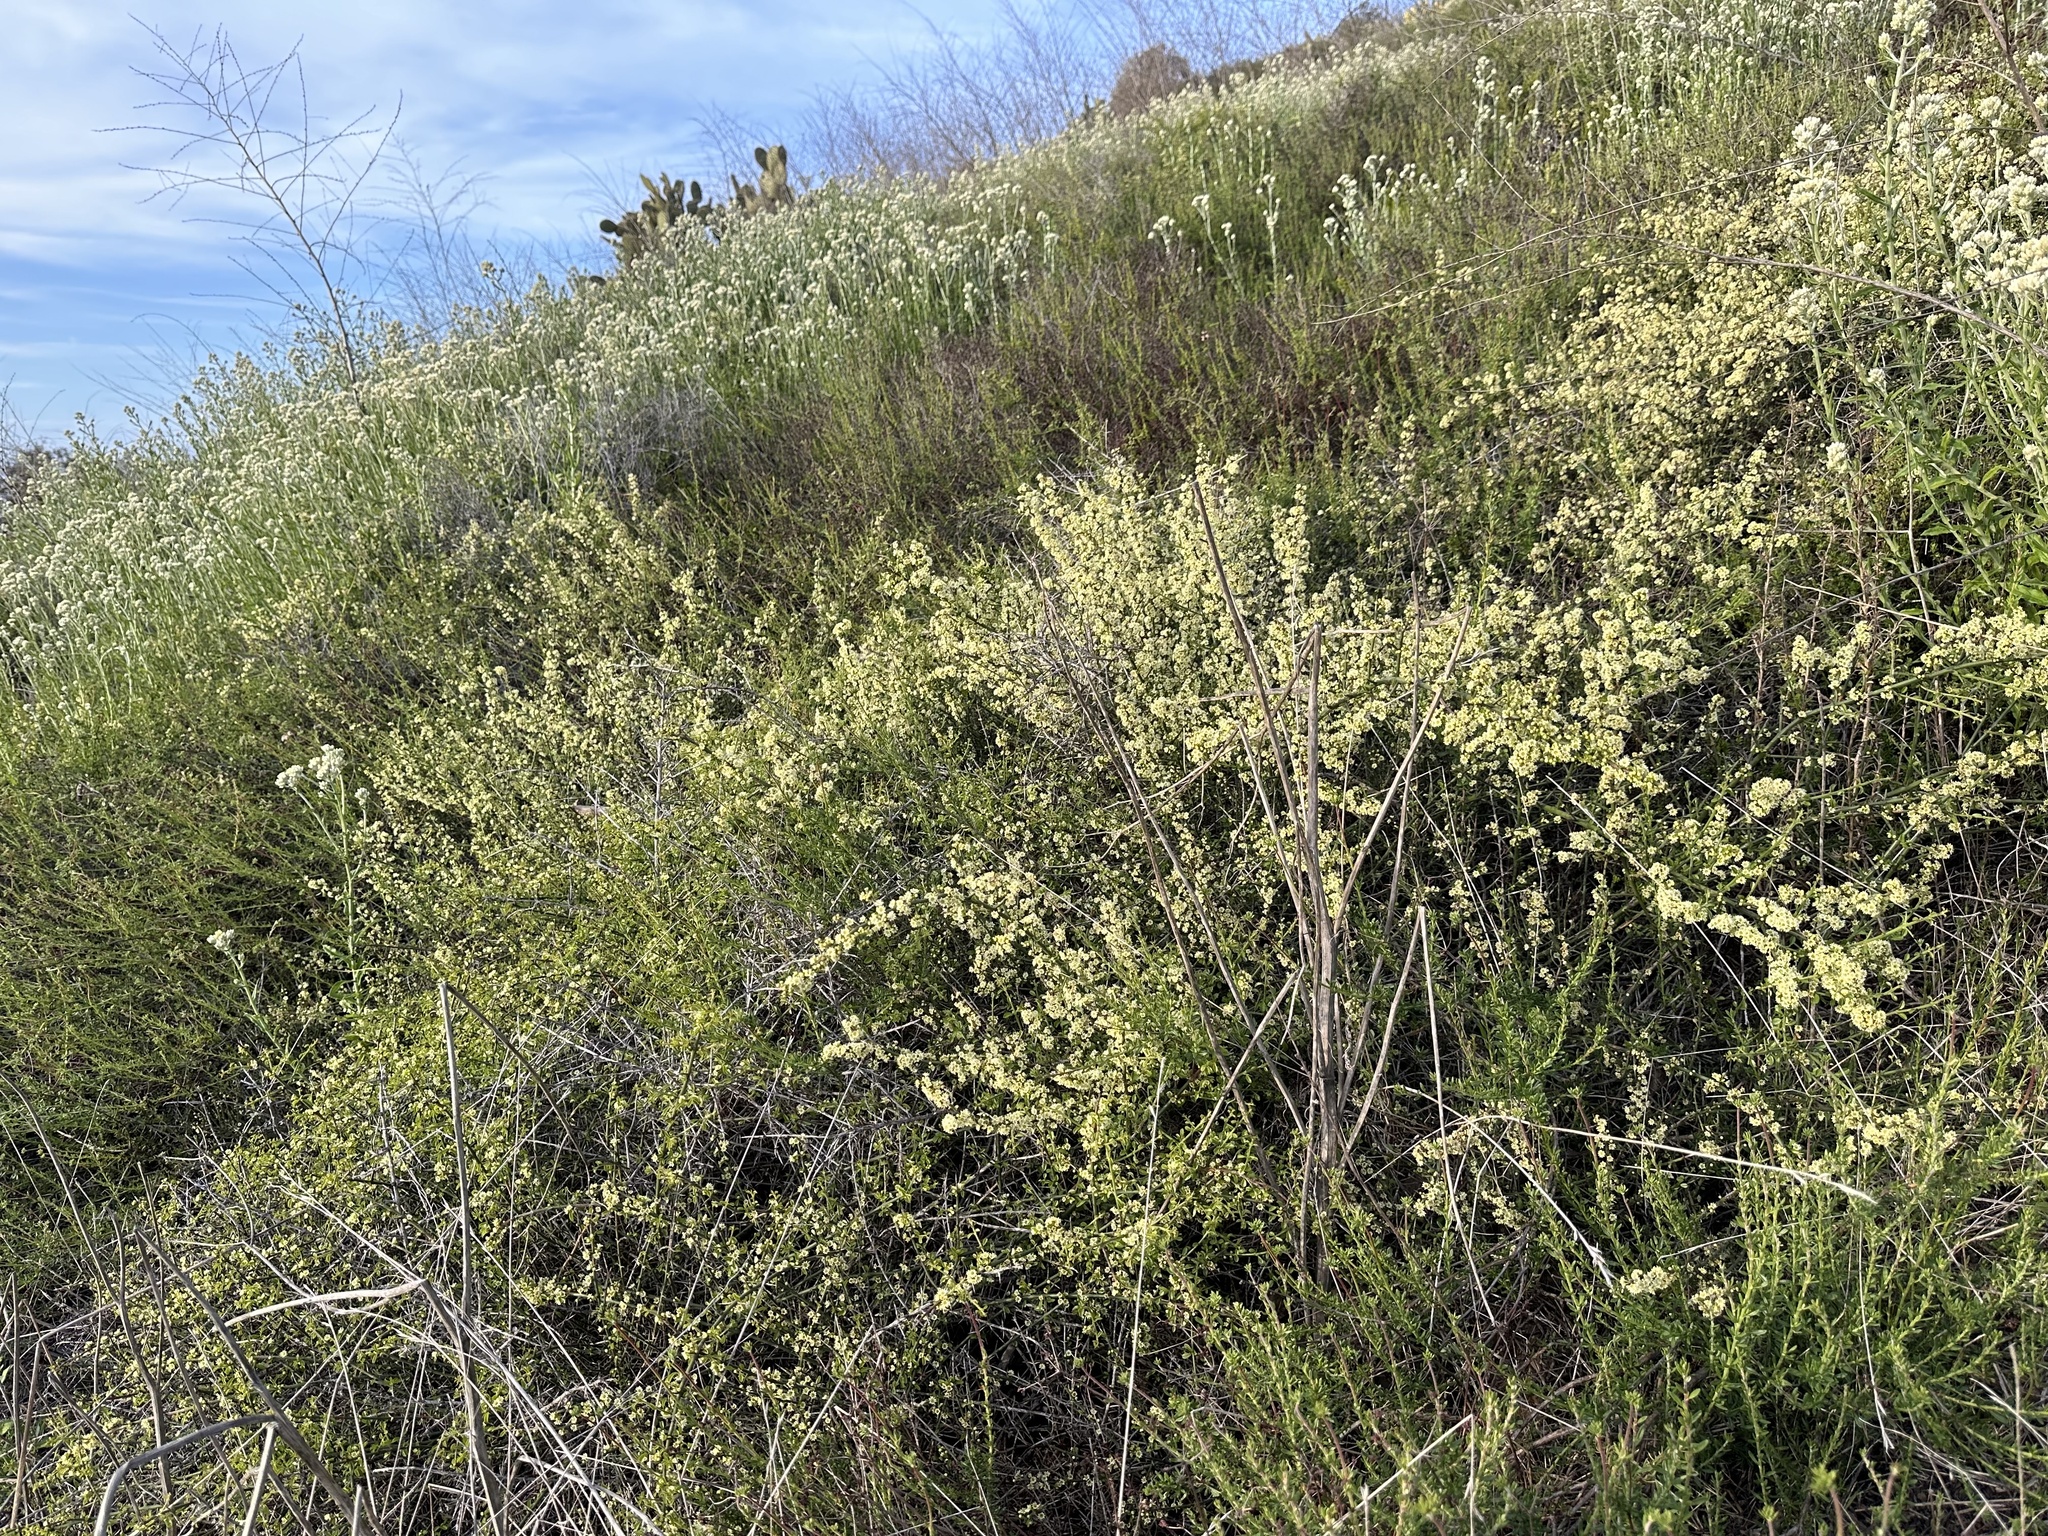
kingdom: Plantae
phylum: Tracheophyta
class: Magnoliopsida
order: Rosales
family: Rhamnaceae
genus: Adolphia
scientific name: Adolphia californica
